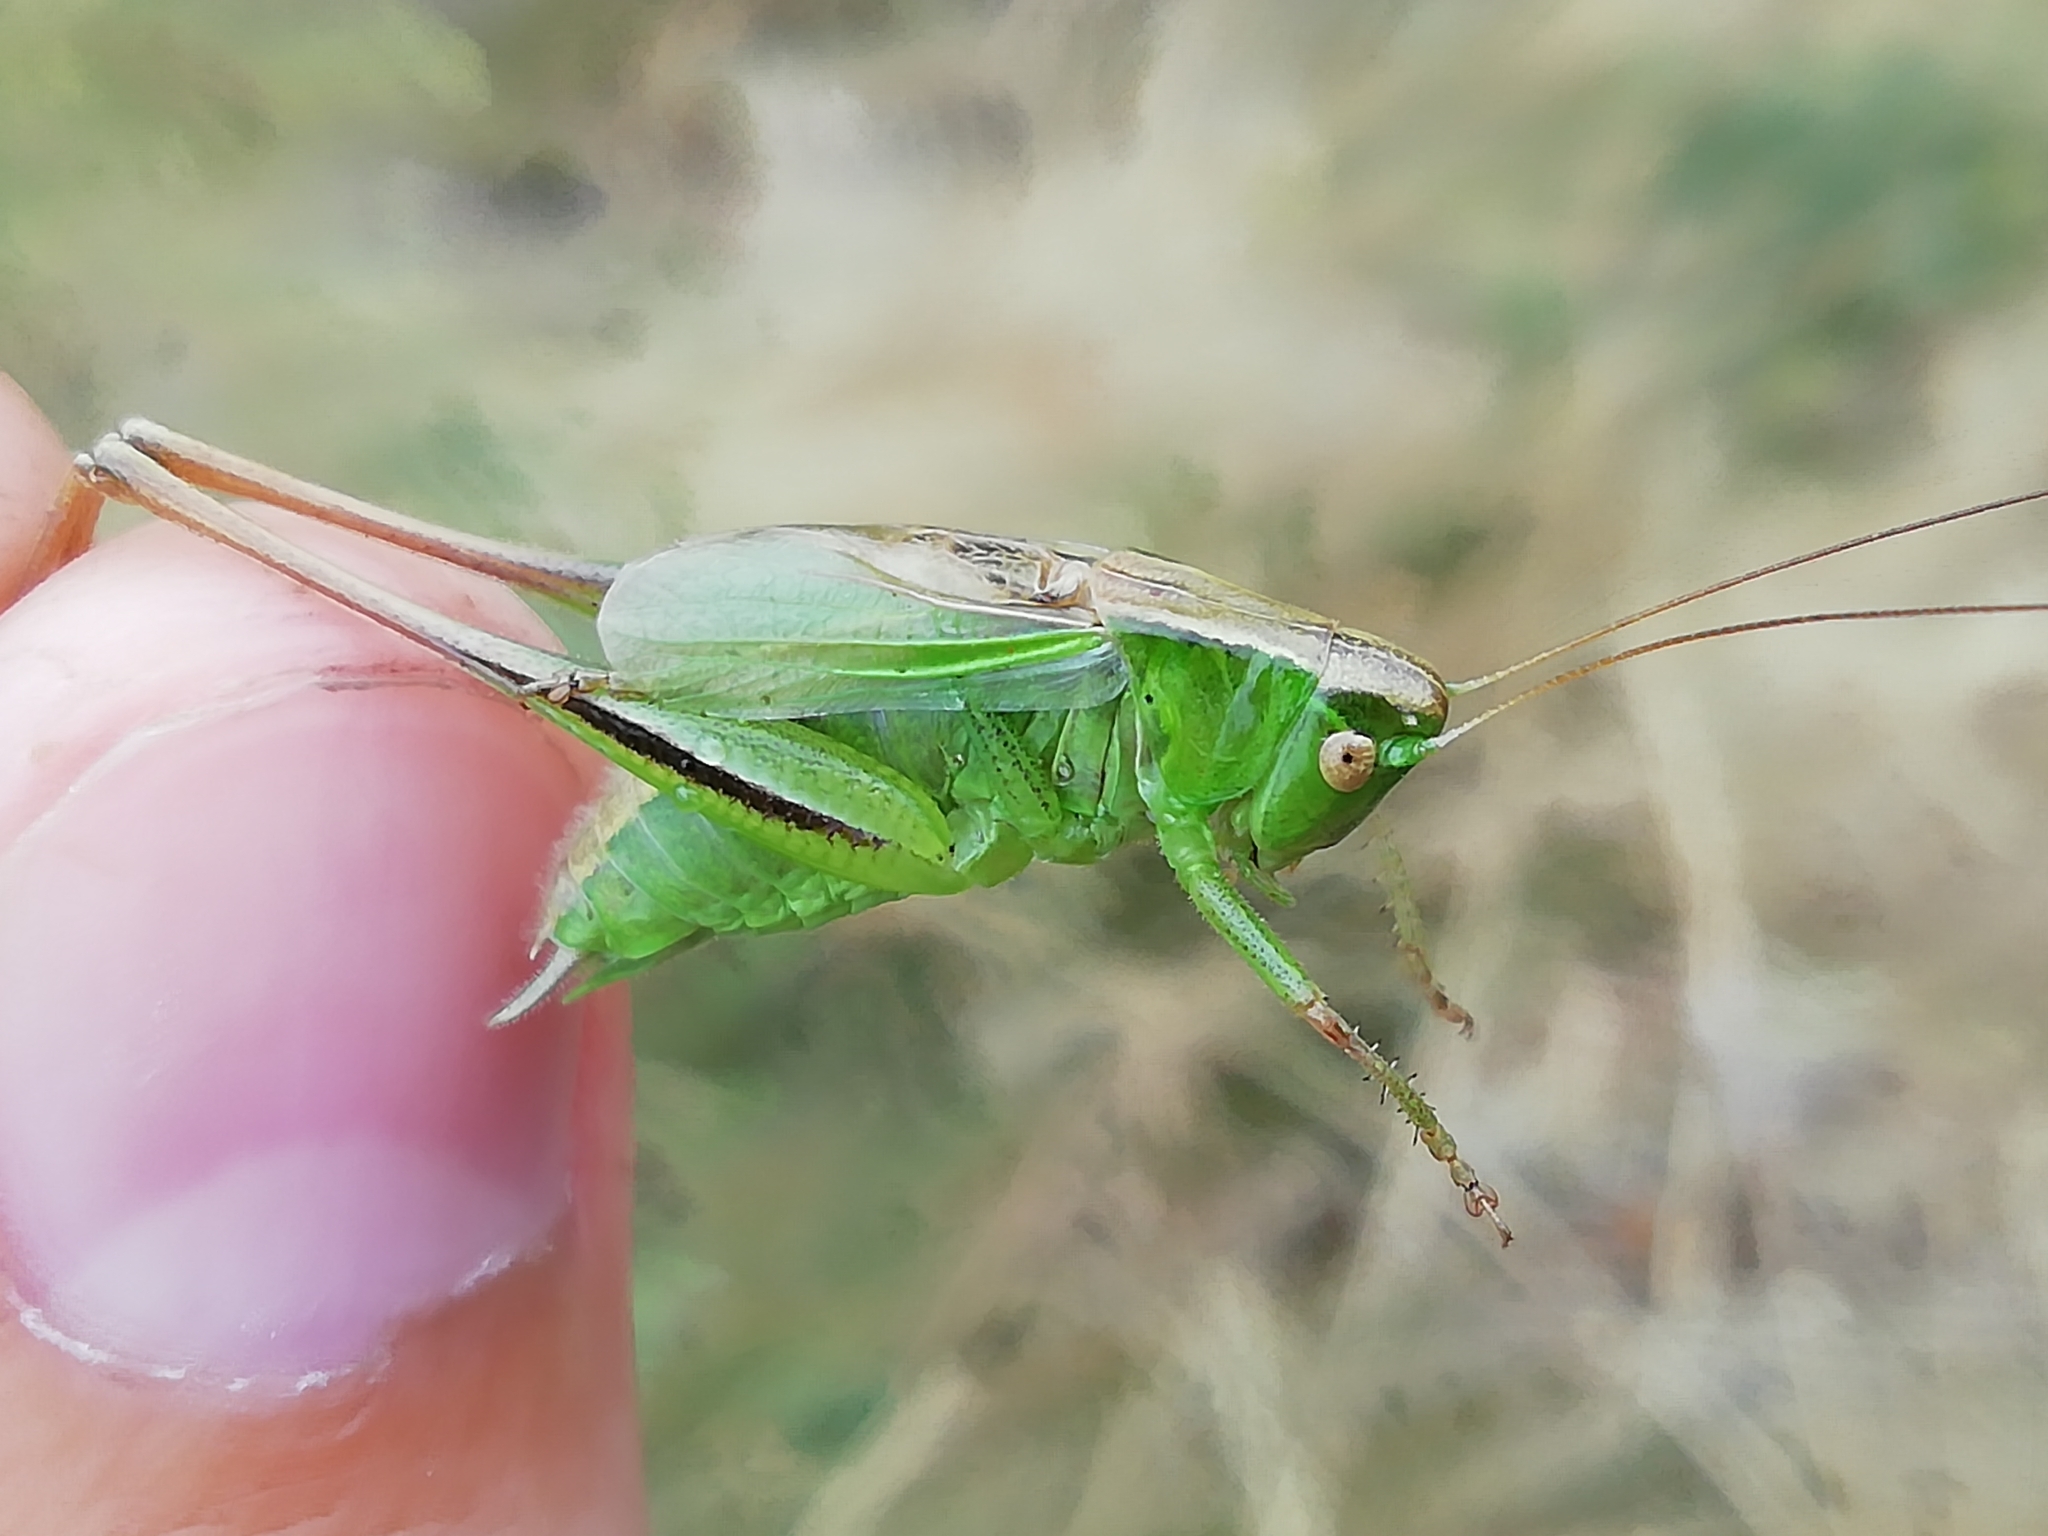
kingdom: Animalia
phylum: Arthropoda
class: Insecta
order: Orthoptera
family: Tettigoniidae
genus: Bicolorana
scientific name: Bicolorana bicolor
